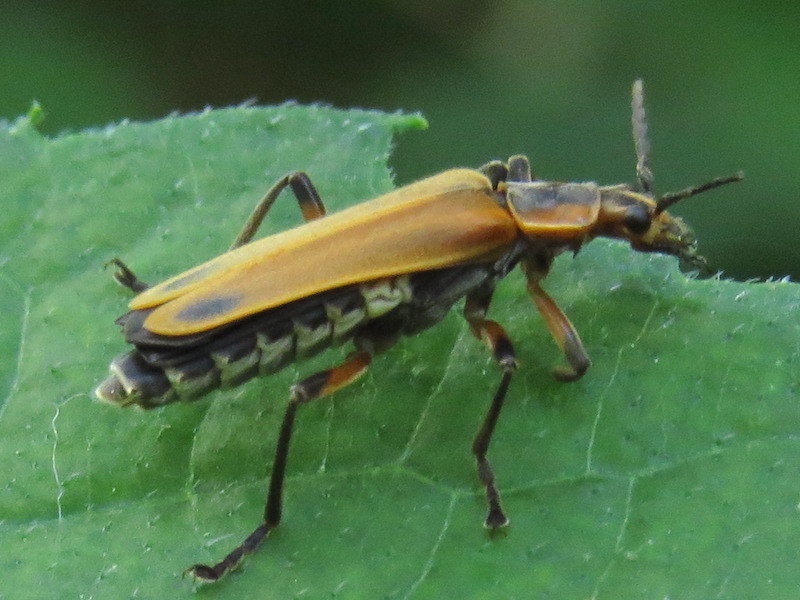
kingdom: Animalia
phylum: Arthropoda
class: Insecta
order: Coleoptera
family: Cantharidae
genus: Chauliognathus
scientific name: Chauliognathus marginatus
